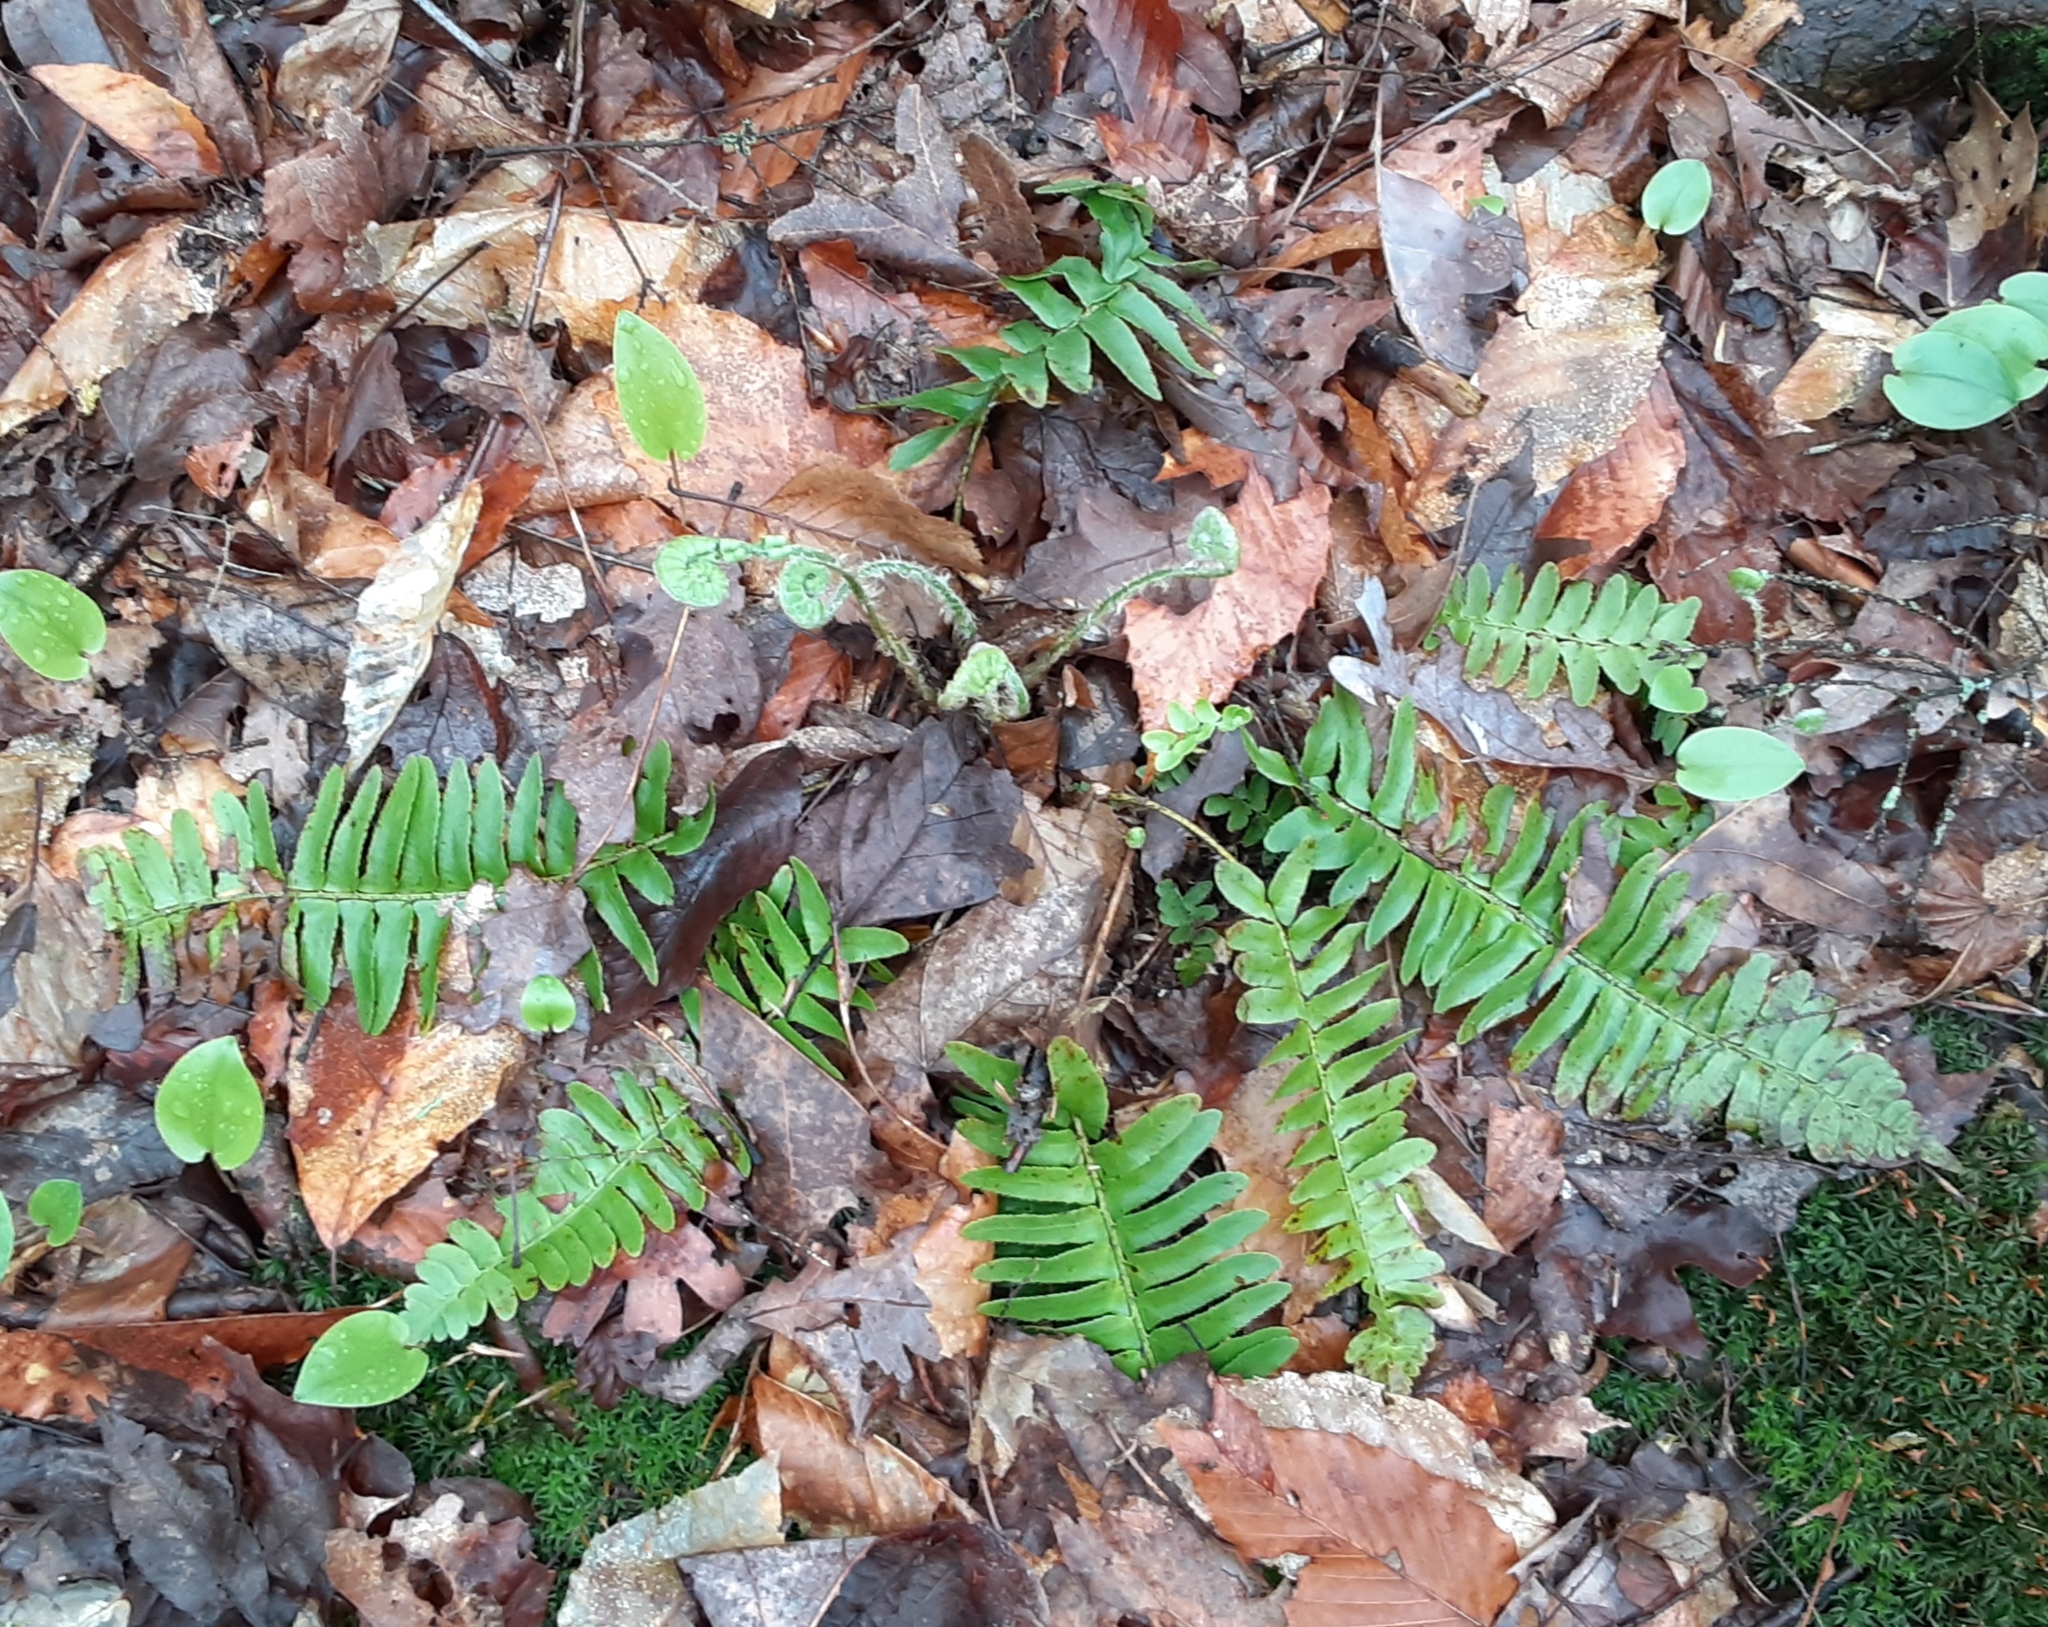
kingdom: Plantae
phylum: Tracheophyta
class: Polypodiopsida
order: Polypodiales
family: Dryopteridaceae
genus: Polystichum
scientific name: Polystichum acrostichoides
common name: Christmas fern
